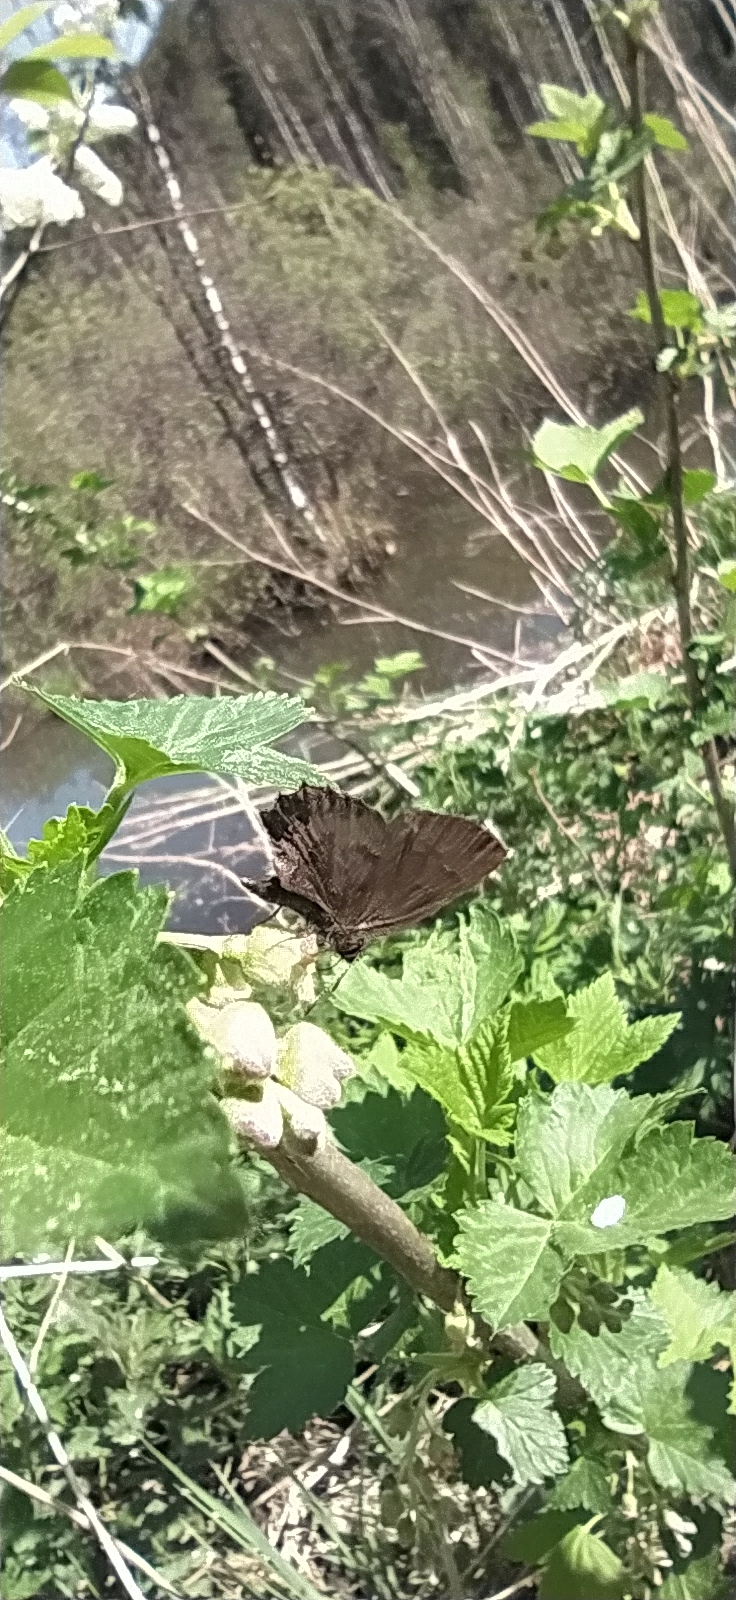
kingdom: Animalia
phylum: Arthropoda
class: Insecta
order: Lepidoptera
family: Lycaenidae
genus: Ginzia
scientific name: Ginzia Ahlbergia frivaldszkyi
